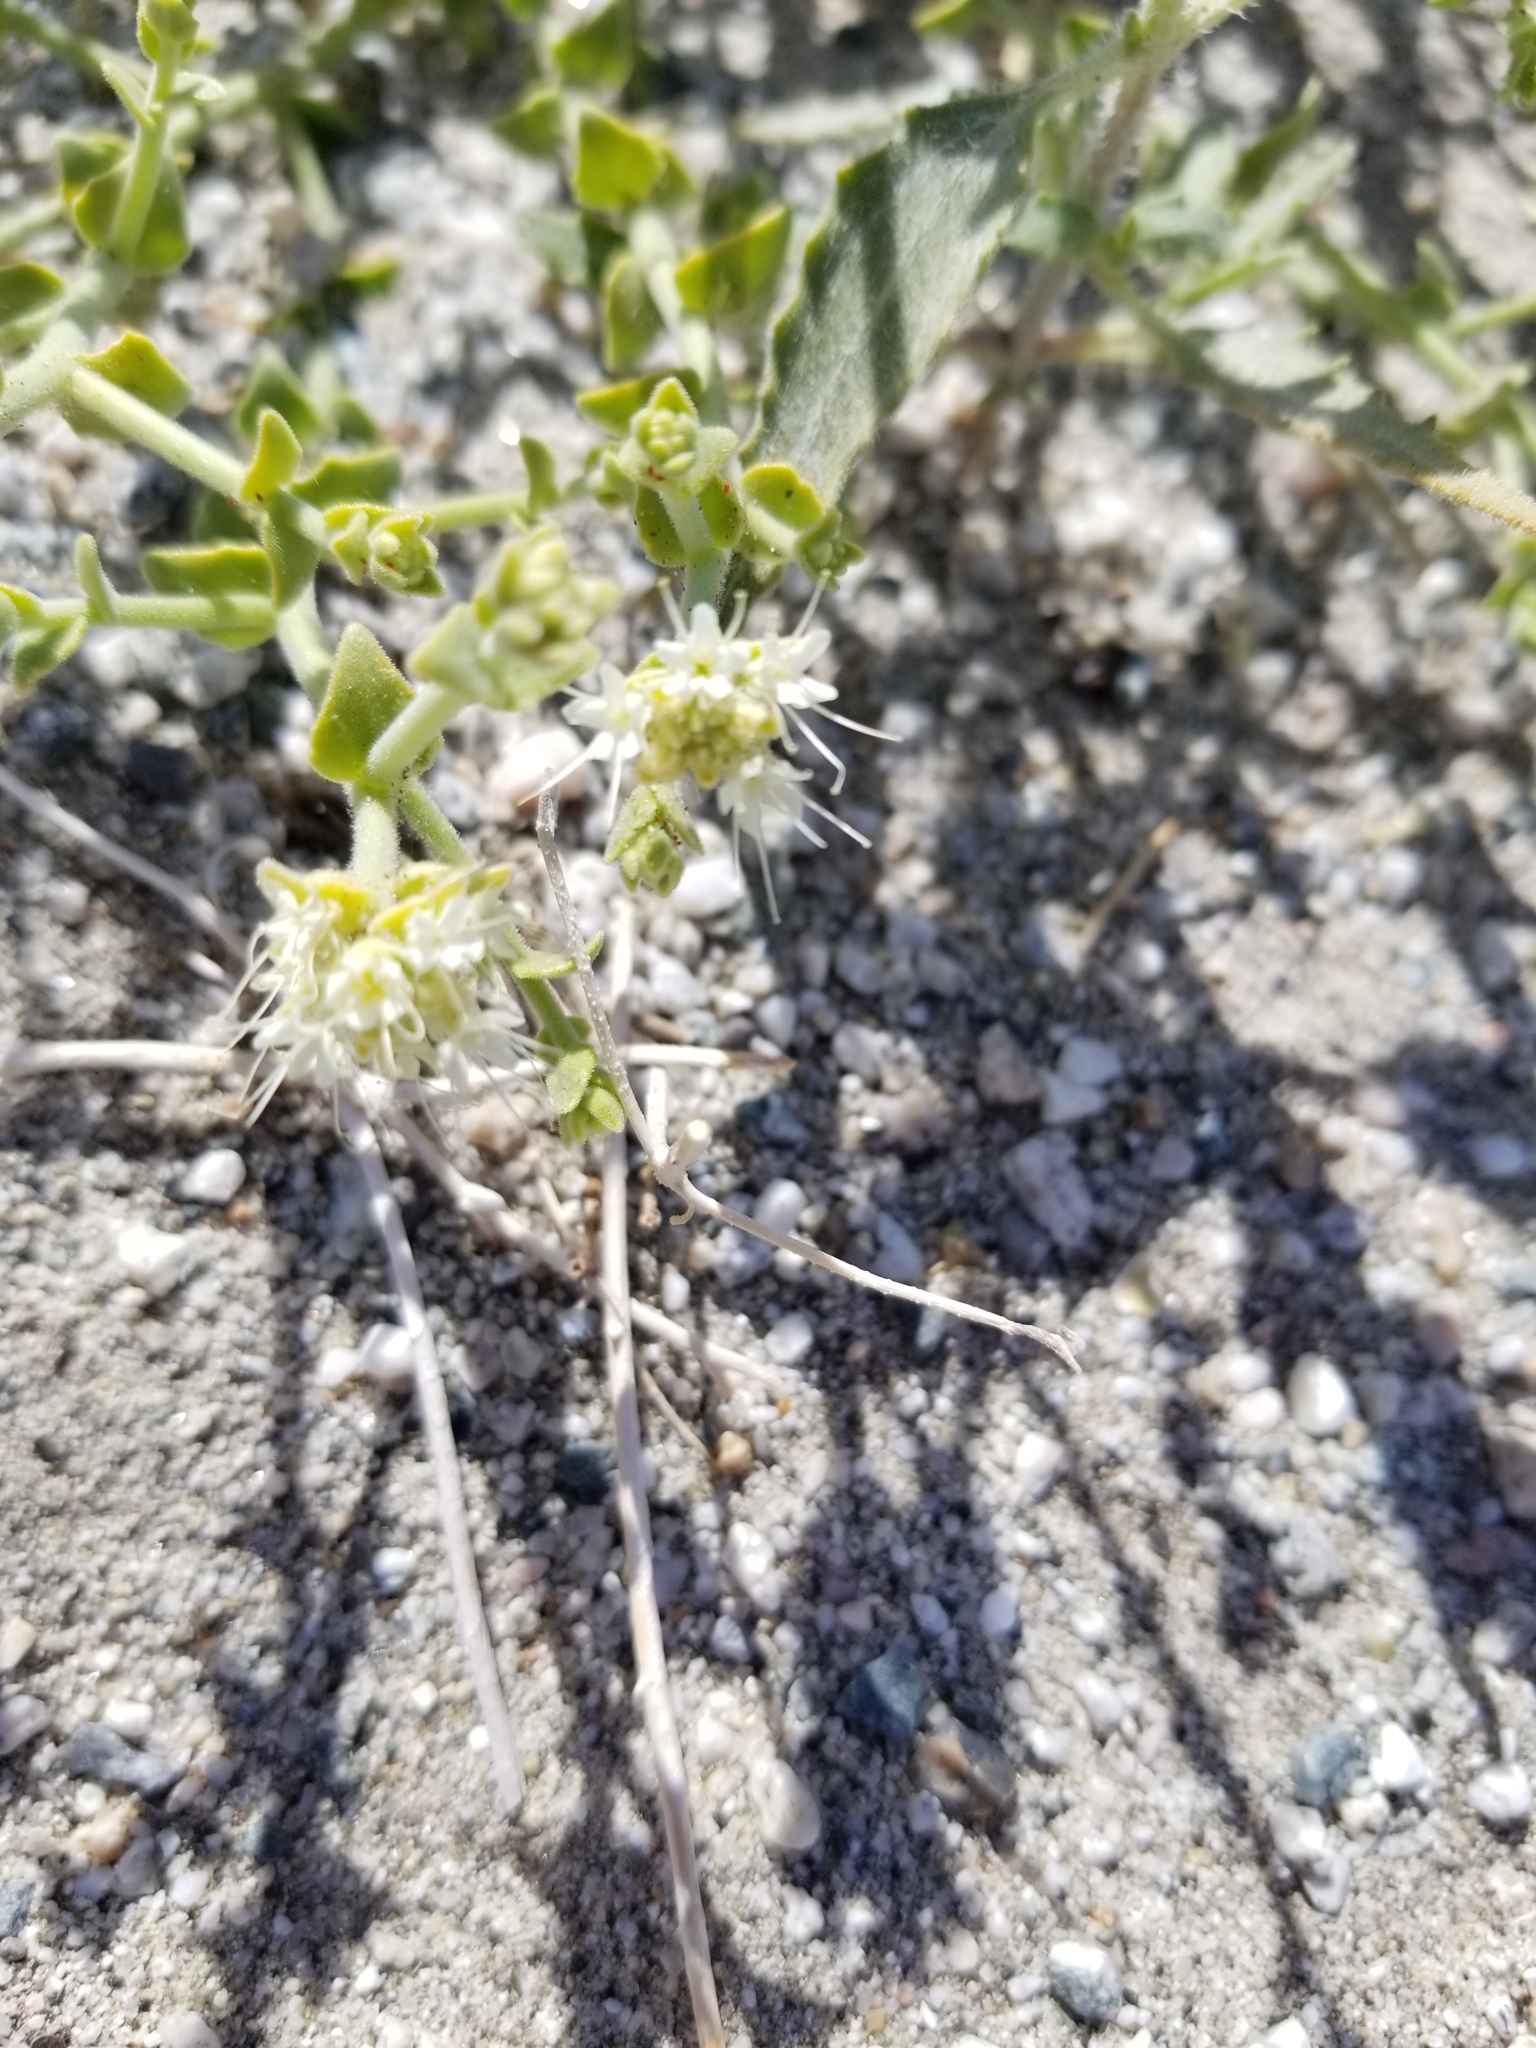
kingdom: Plantae
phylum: Tracheophyta
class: Magnoliopsida
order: Cornales
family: Loasaceae
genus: Petalonyx
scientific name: Petalonyx thurberi
